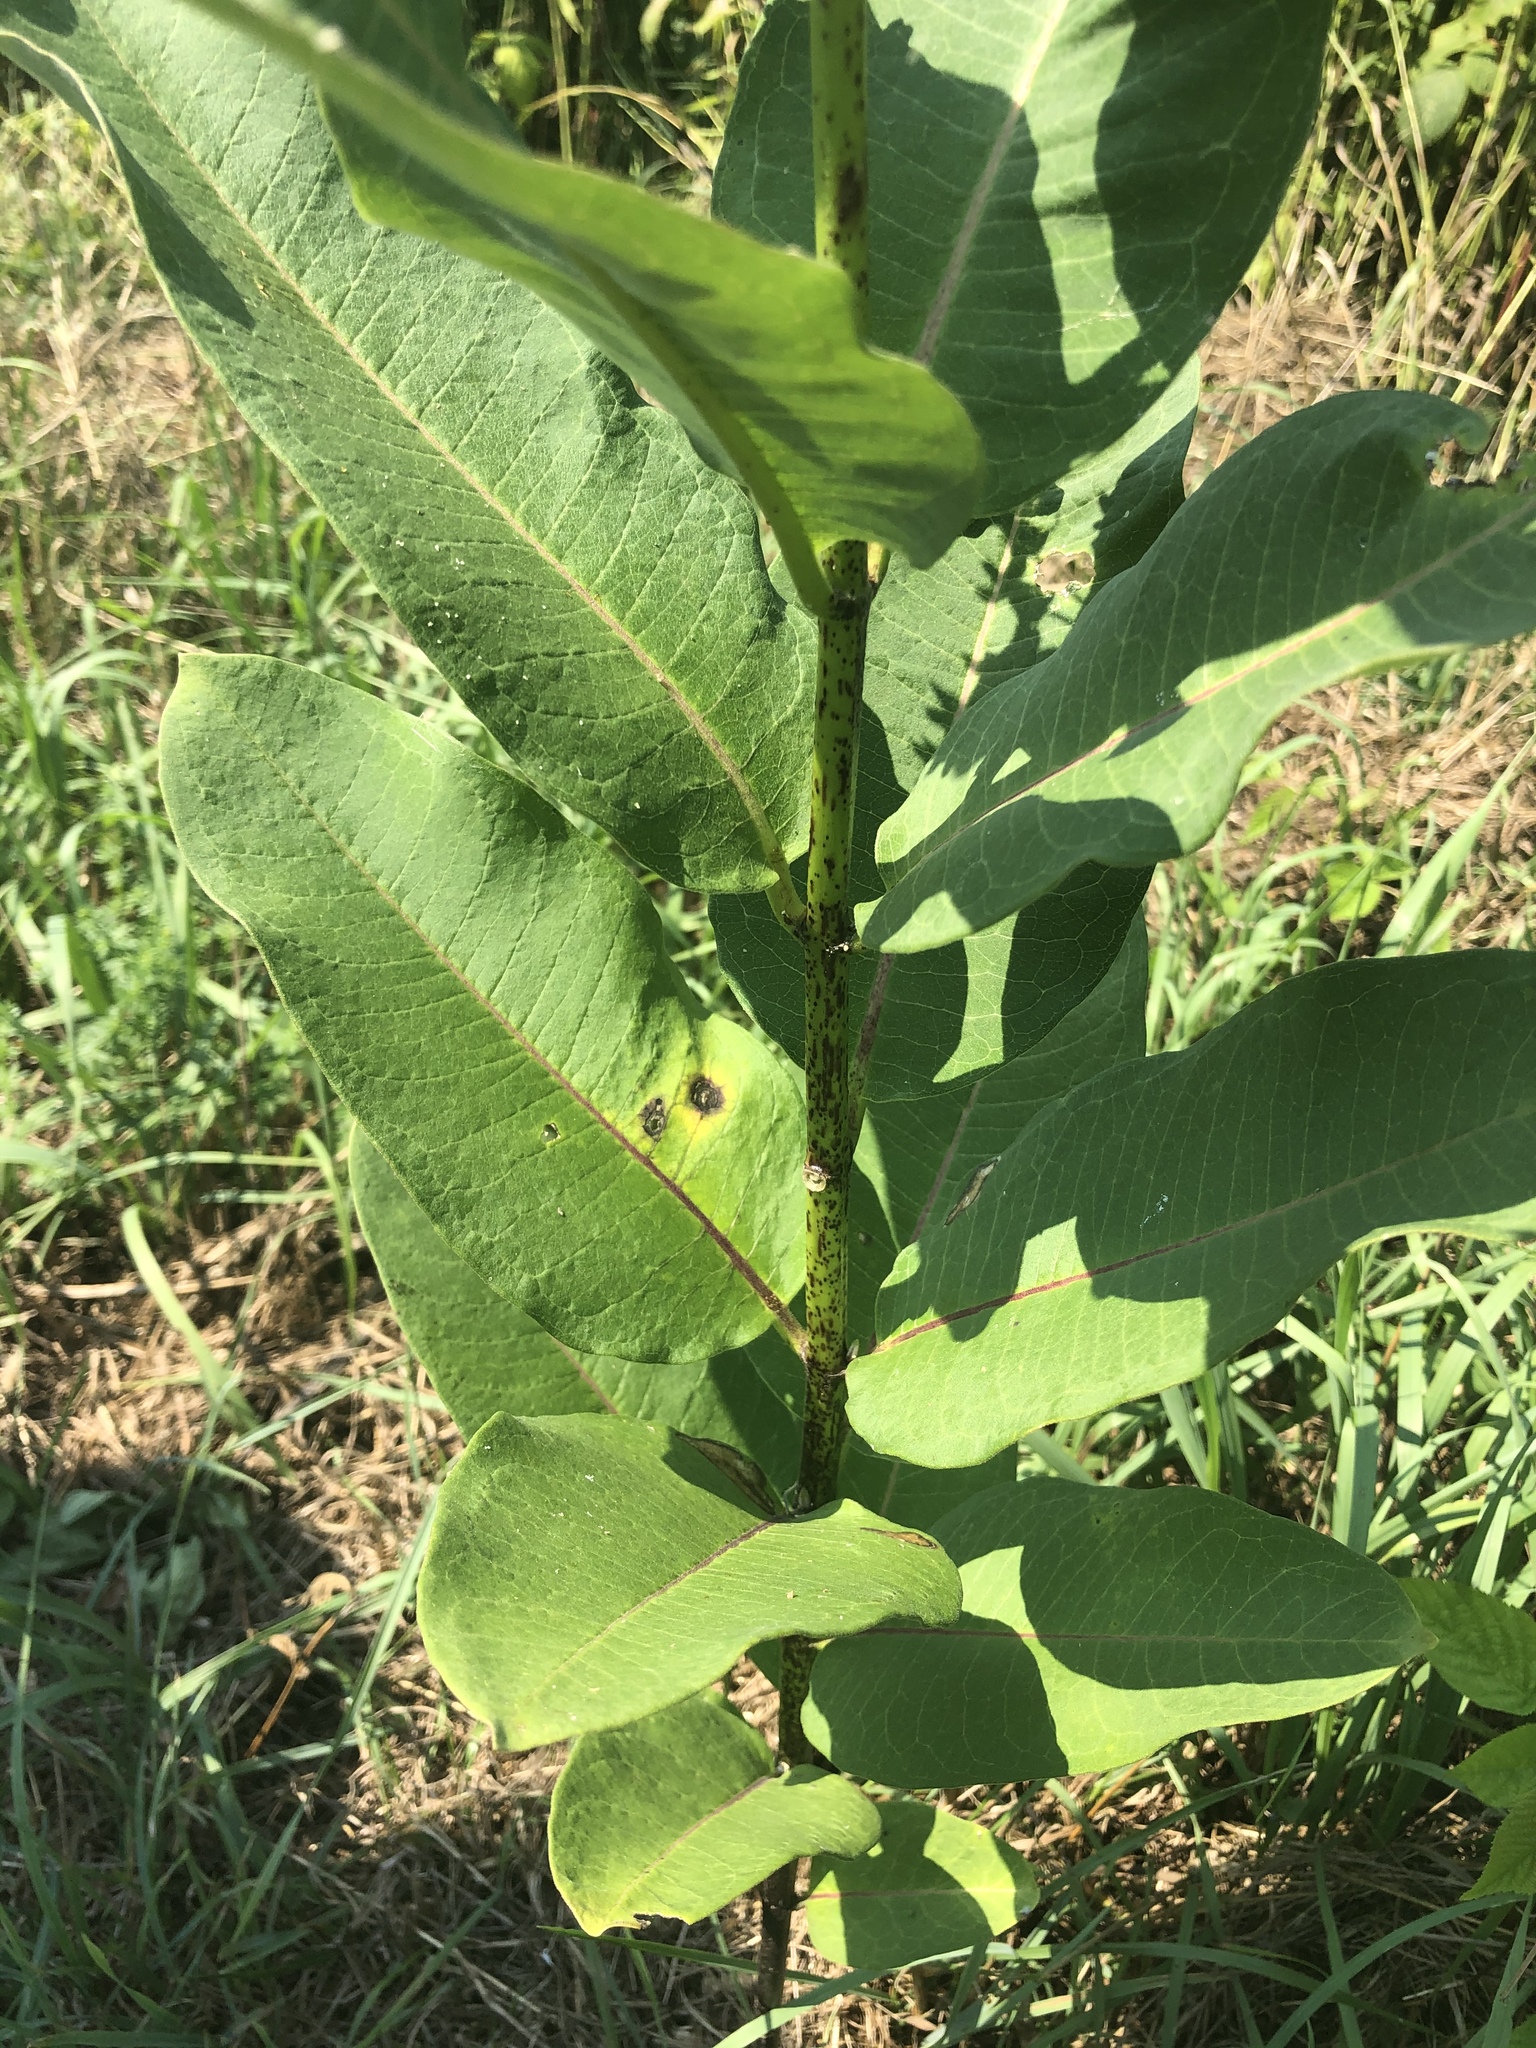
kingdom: Plantae
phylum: Tracheophyta
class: Magnoliopsida
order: Gentianales
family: Apocynaceae
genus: Asclepias
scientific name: Asclepias syriaca
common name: Common milkweed
